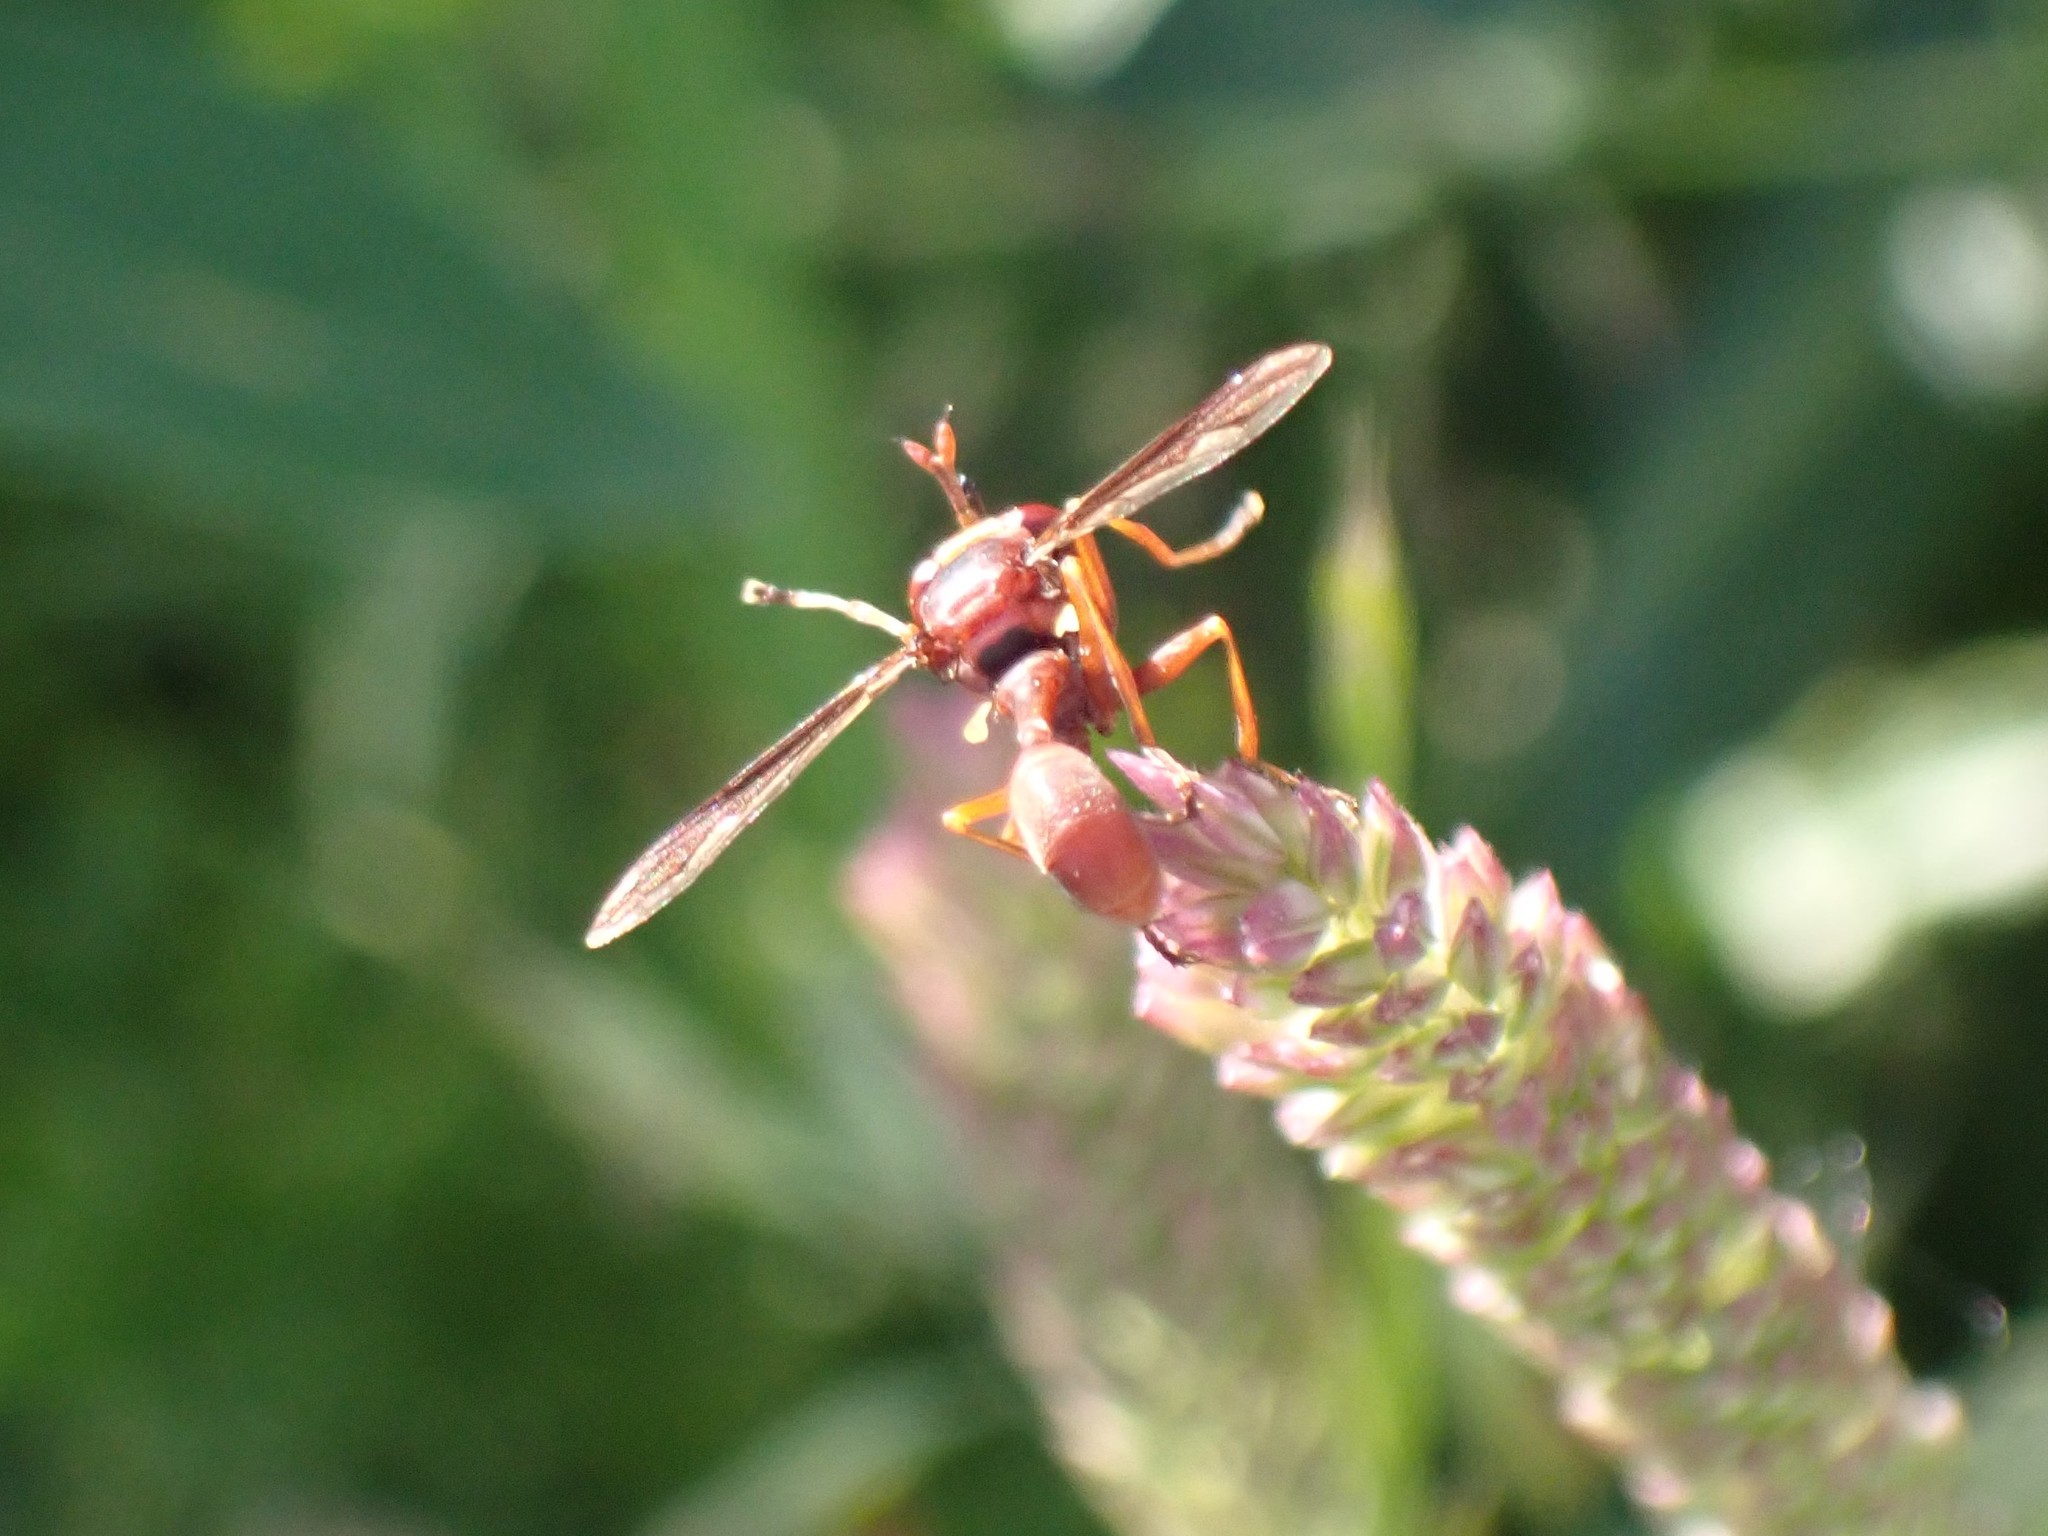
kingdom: Animalia
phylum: Arthropoda
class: Insecta
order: Diptera
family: Conopidae
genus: Physocephala
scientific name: Physocephala burgessi
